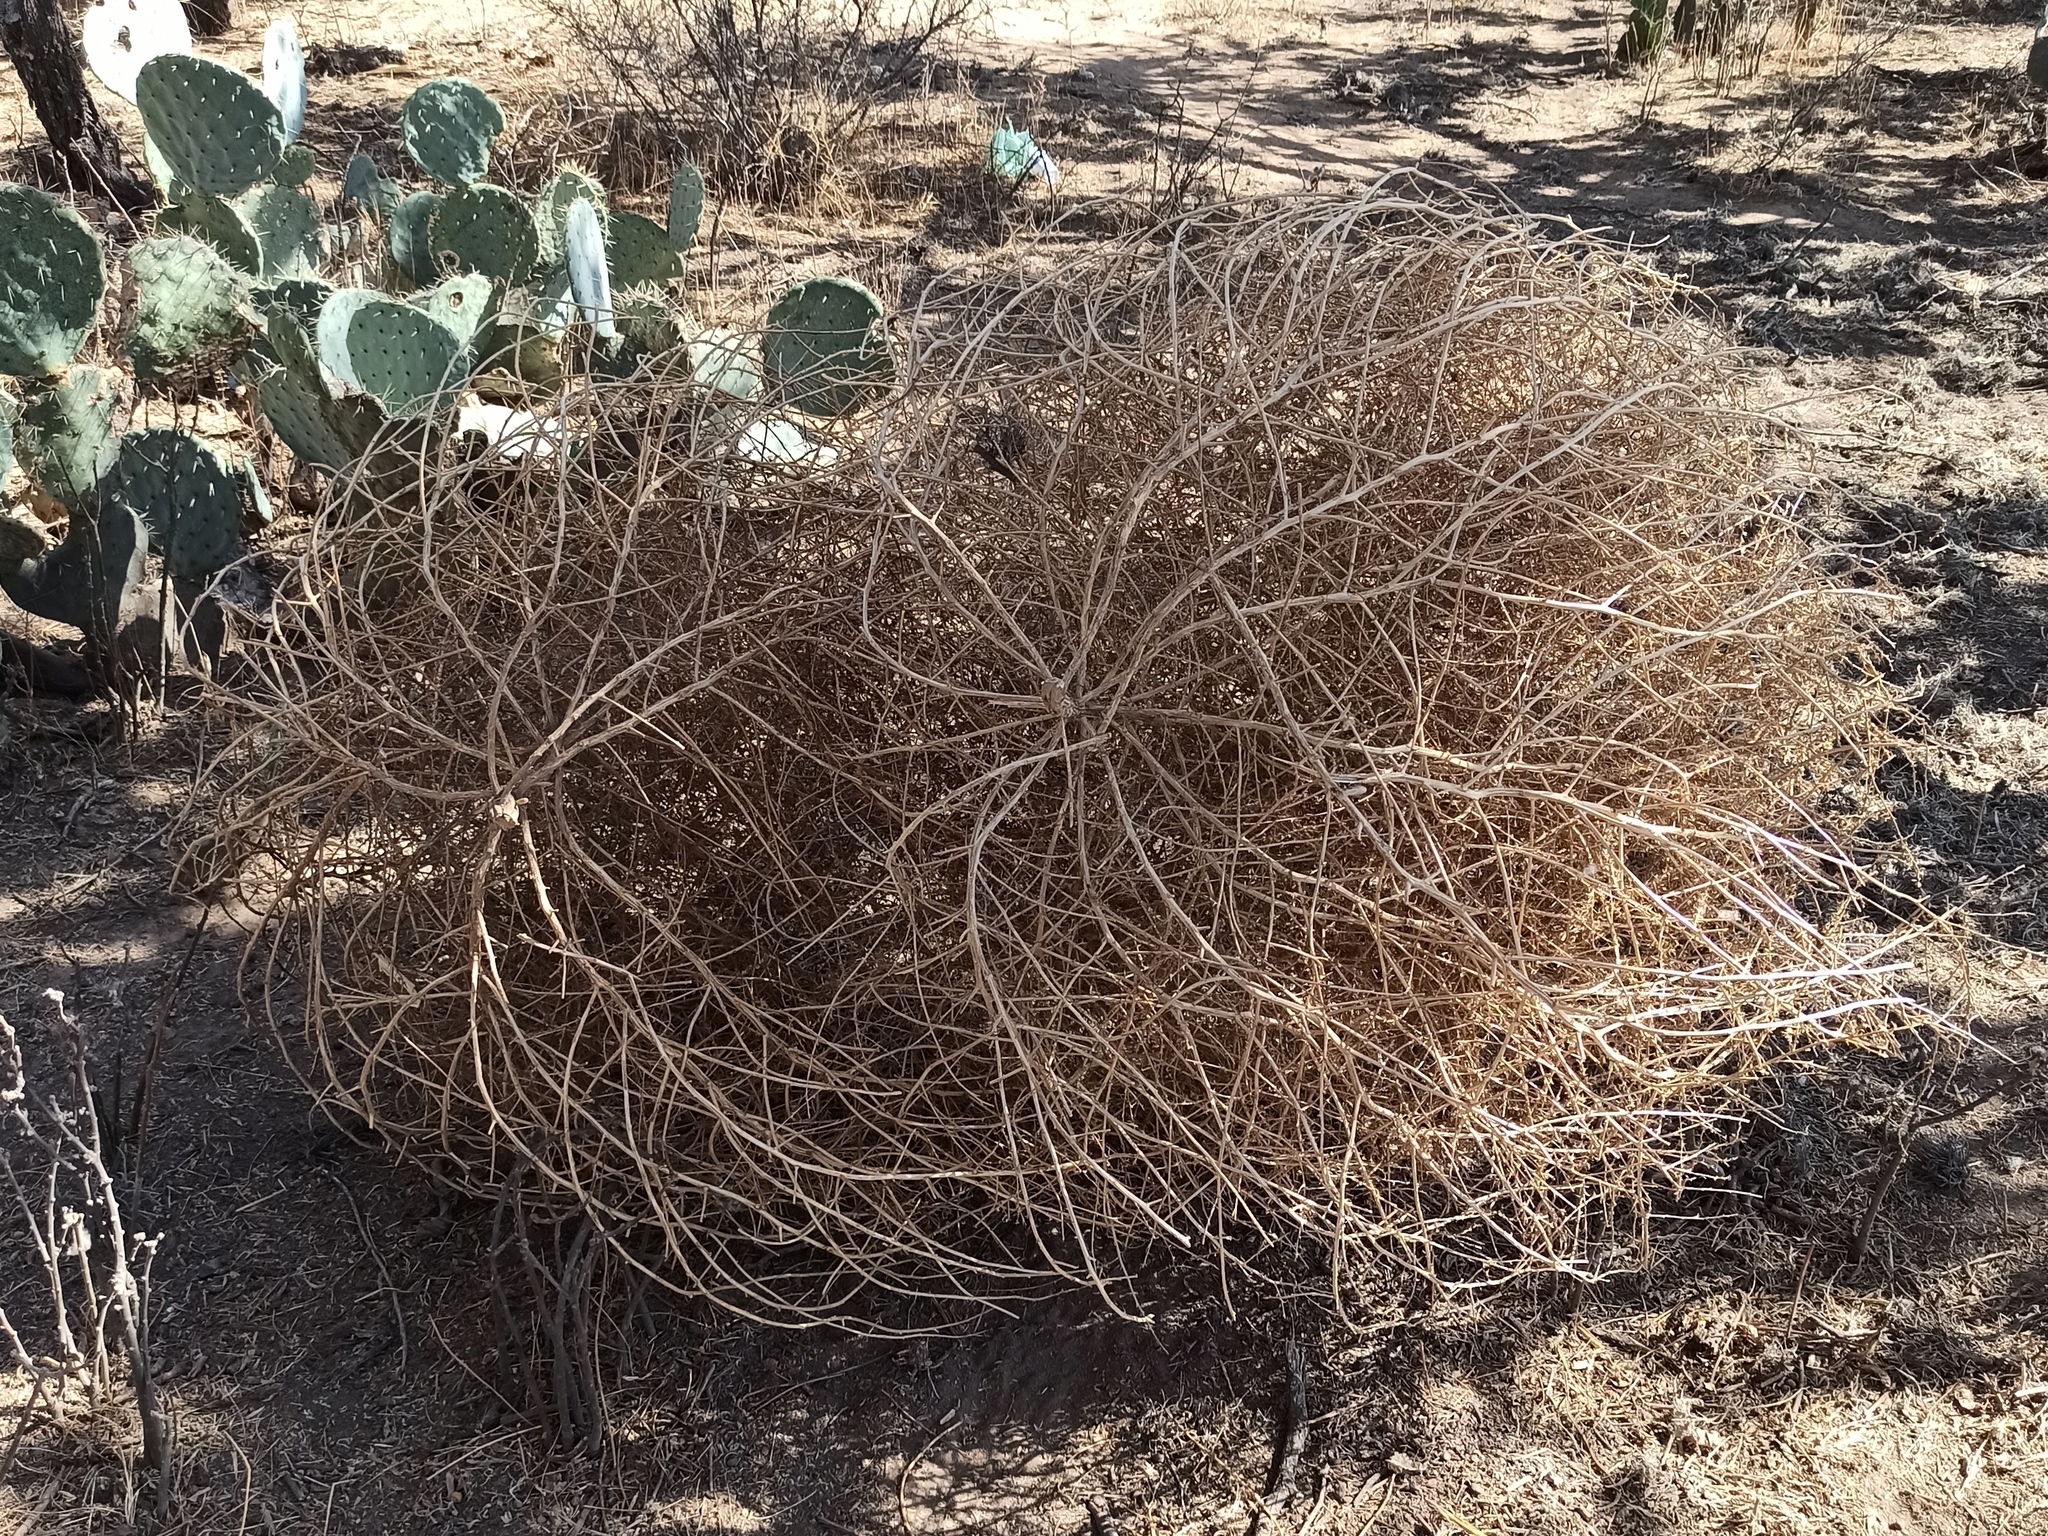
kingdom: Plantae
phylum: Tracheophyta
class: Magnoliopsida
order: Caryophyllales
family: Amaranthaceae
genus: Salsola
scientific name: Salsola tragus
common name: Prickly russian thistle
